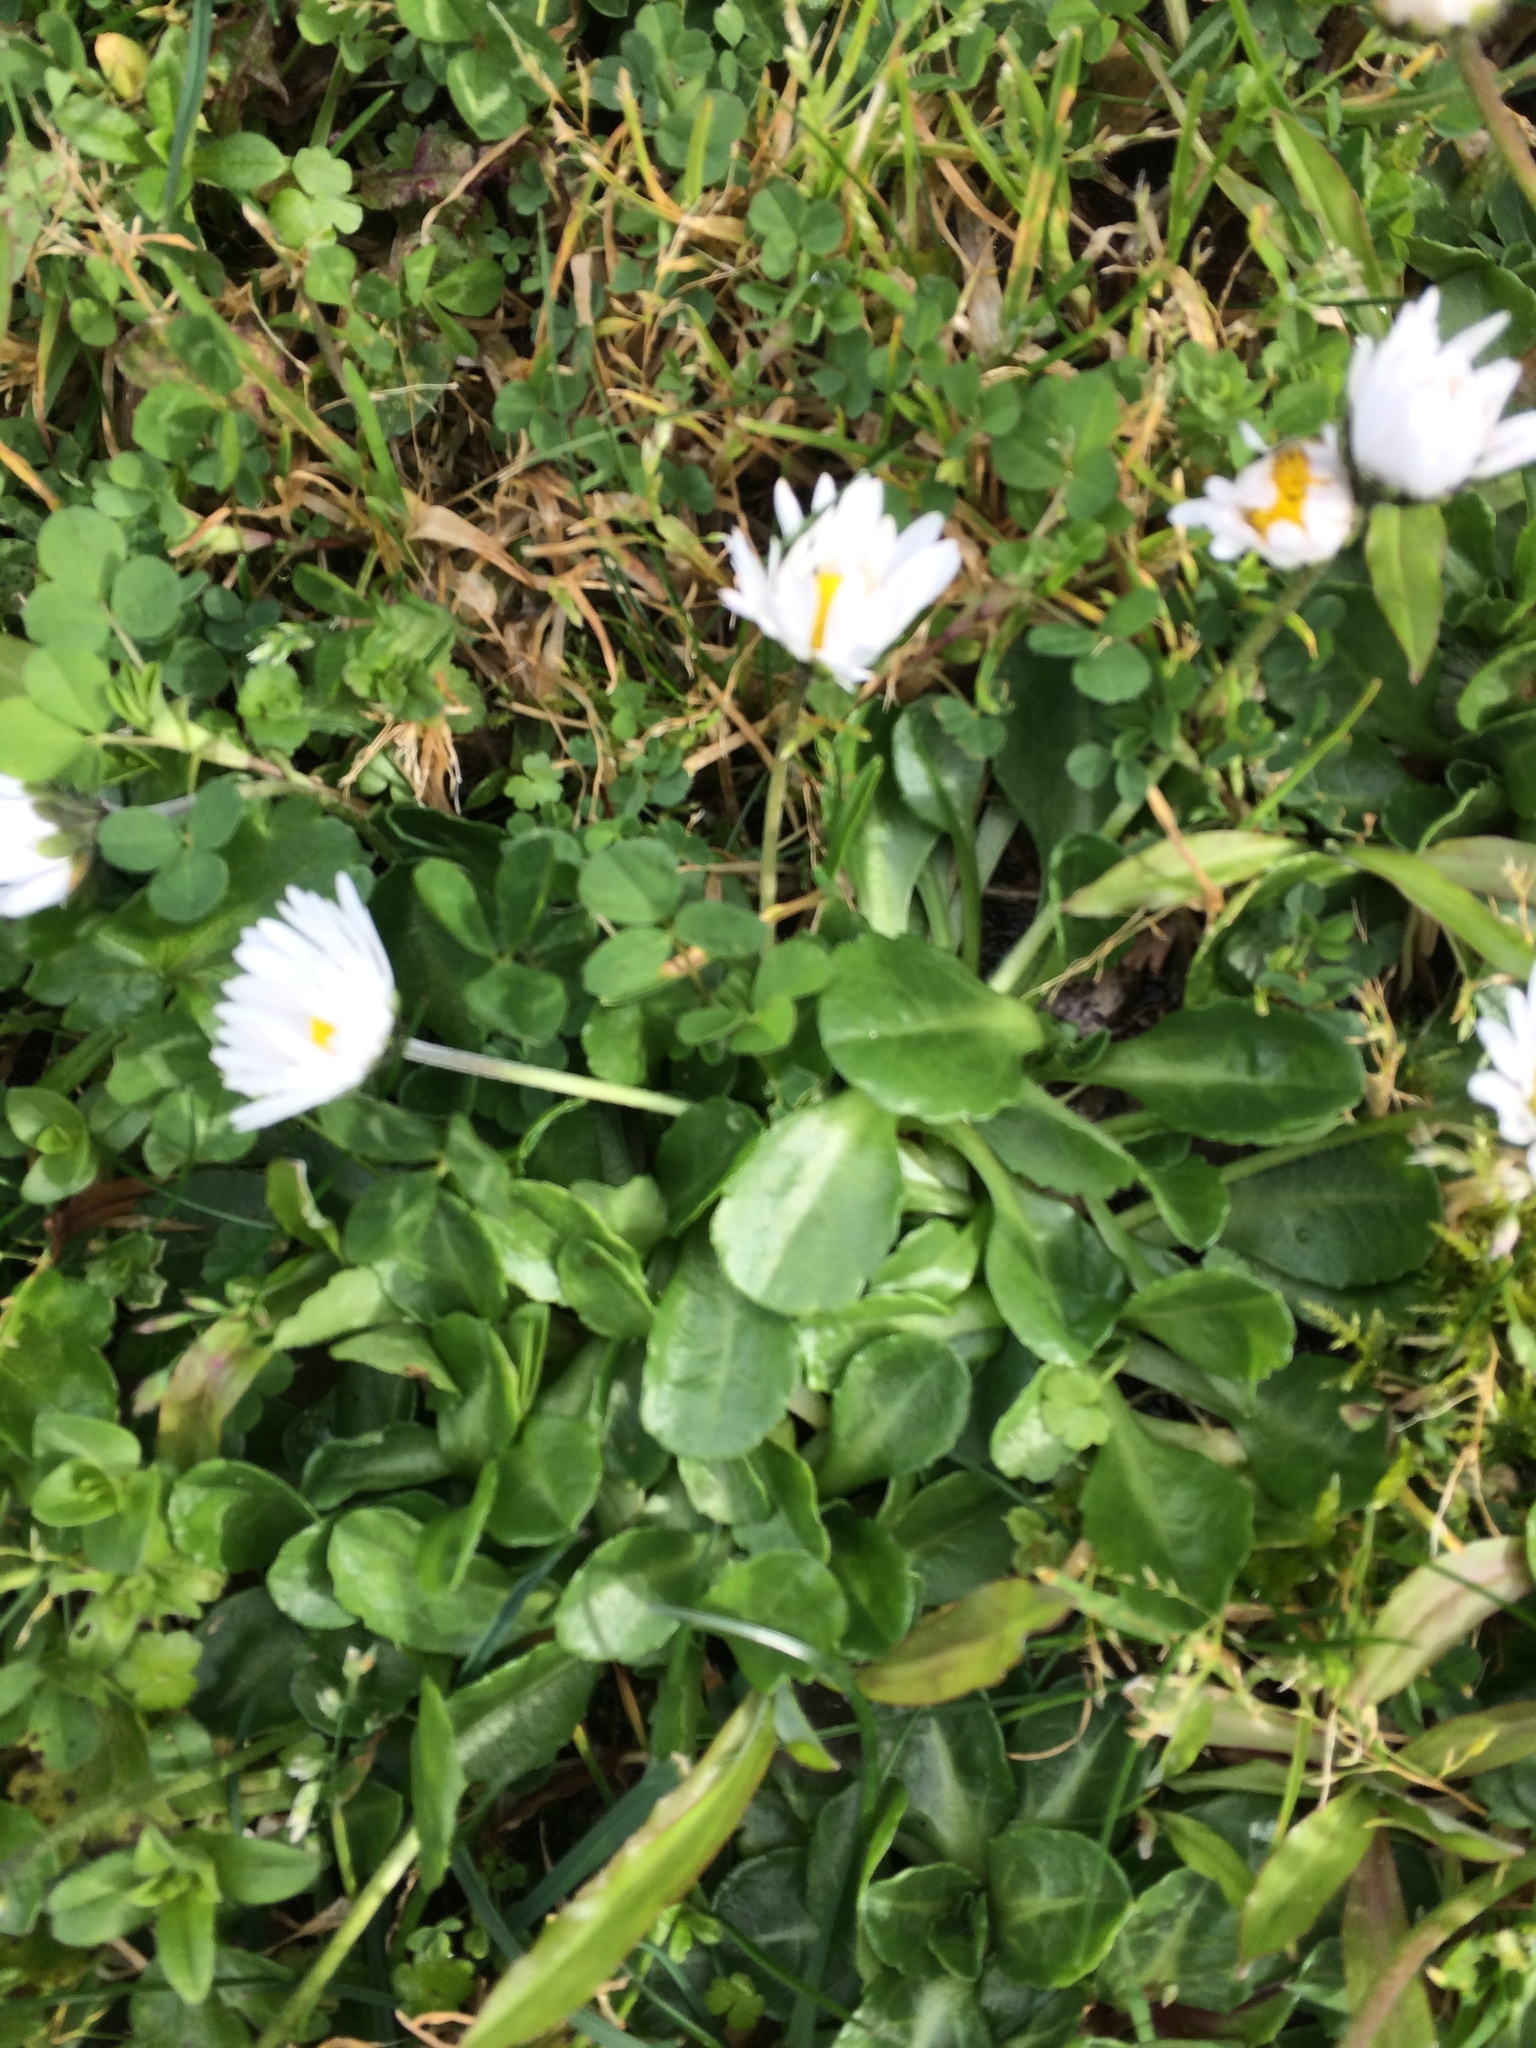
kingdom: Plantae
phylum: Tracheophyta
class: Magnoliopsida
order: Asterales
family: Asteraceae
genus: Bellis
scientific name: Bellis perennis
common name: Lawndaisy
